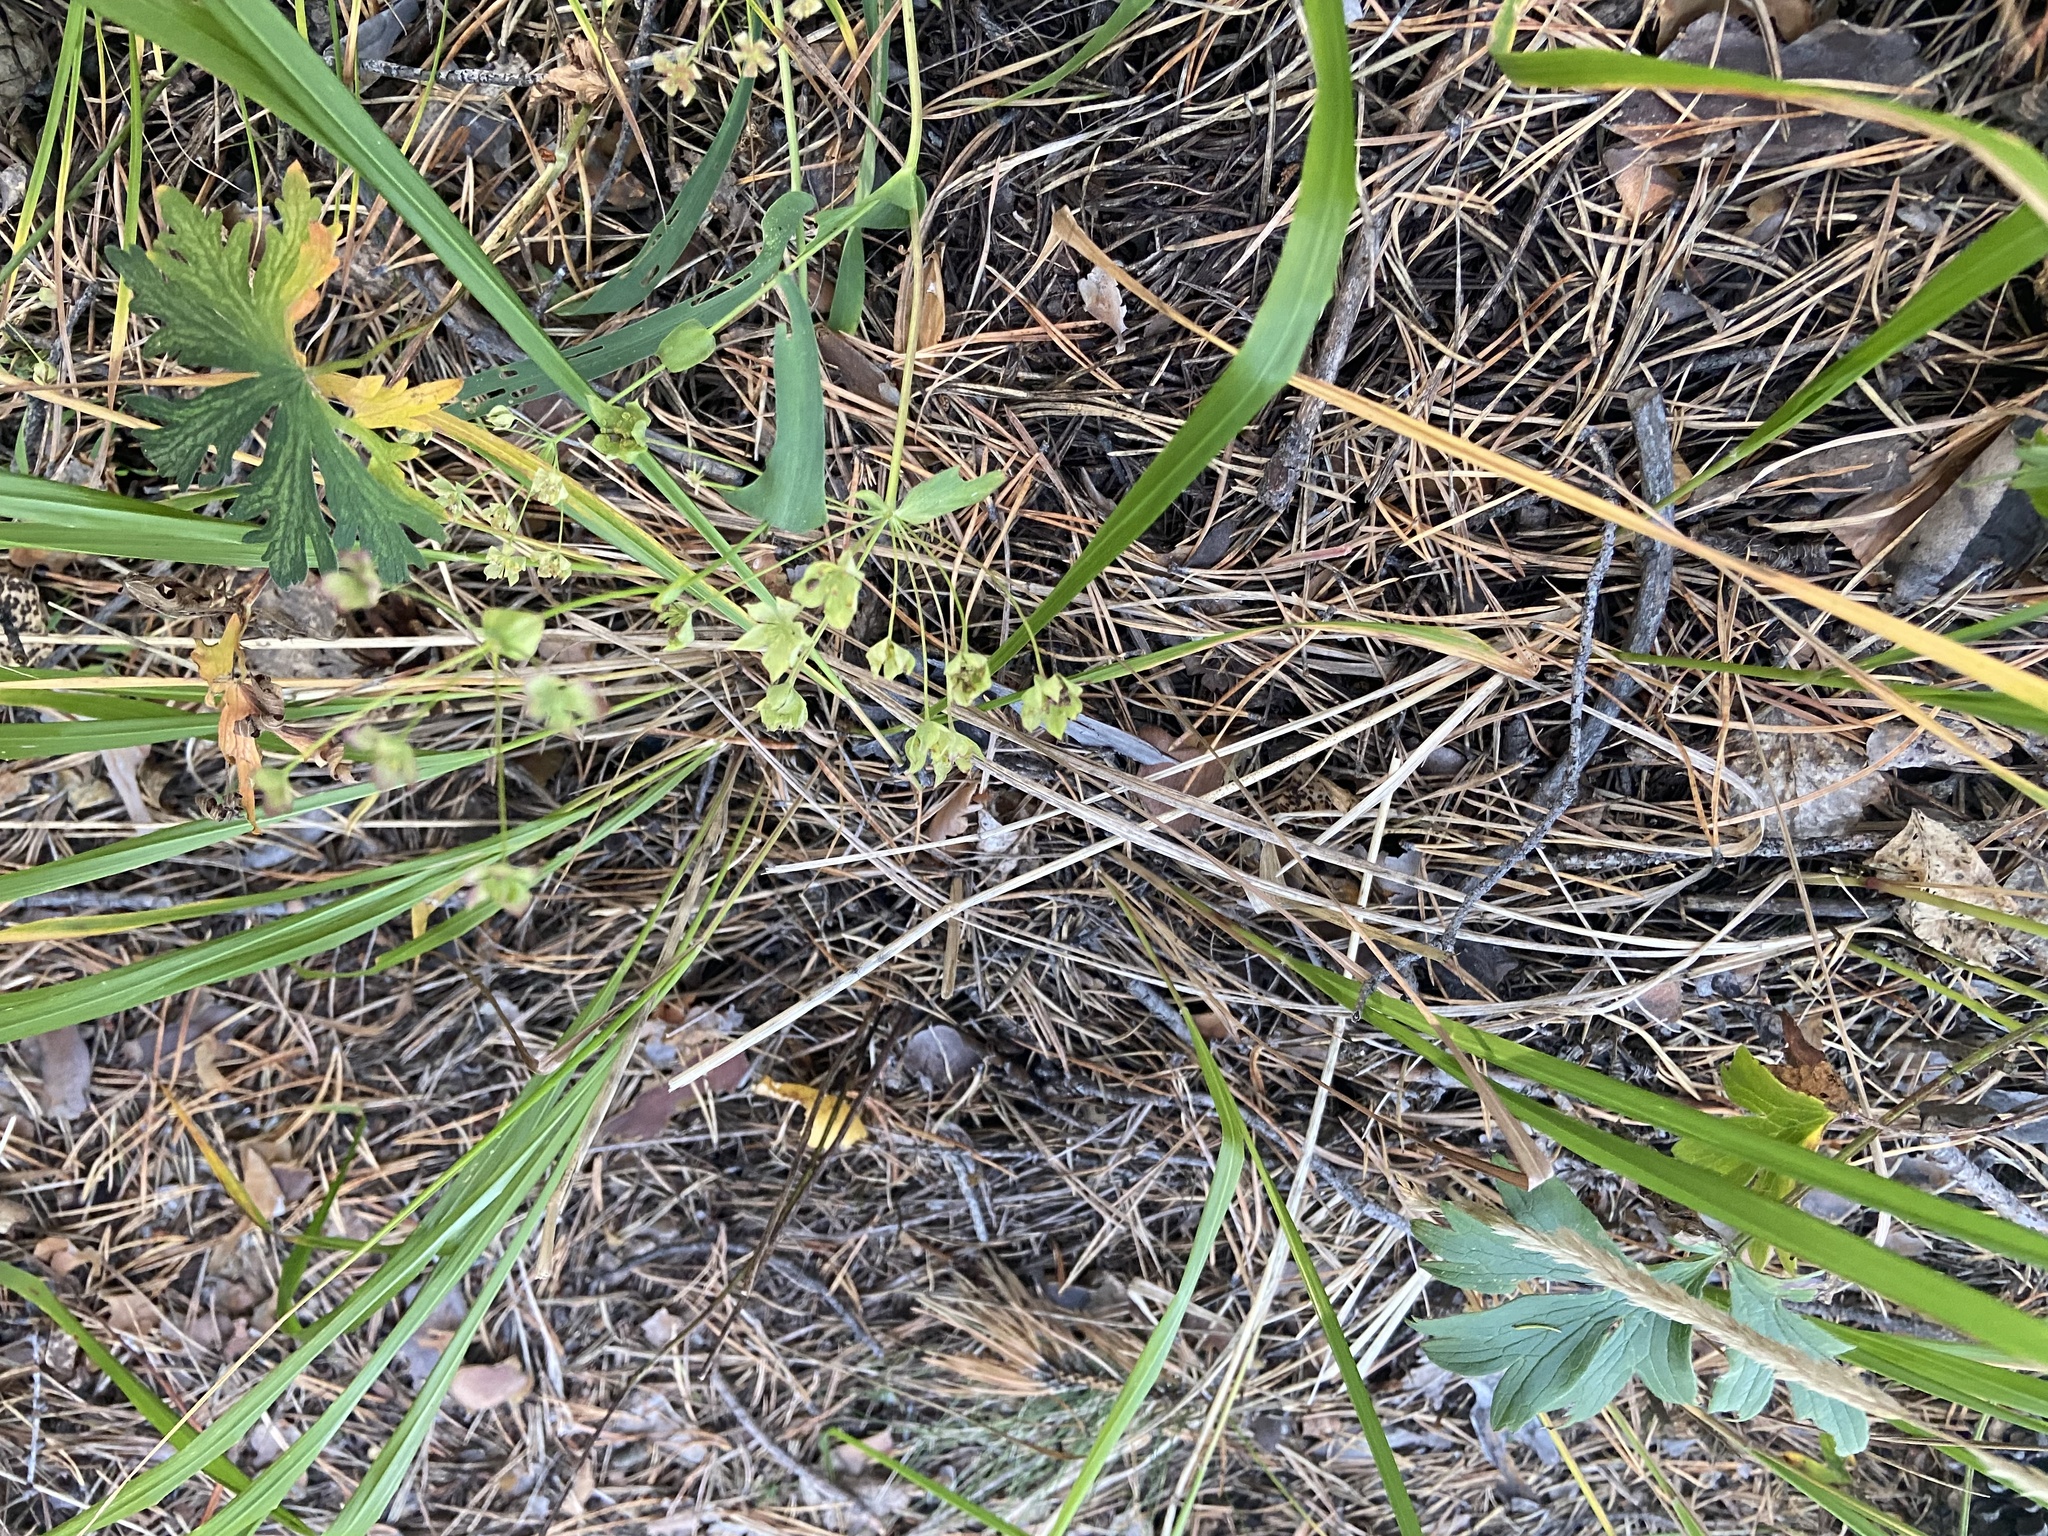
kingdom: Plantae
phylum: Tracheophyta
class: Magnoliopsida
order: Apiales
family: Apiaceae
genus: Bupleurum
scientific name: Bupleurum multinerve
